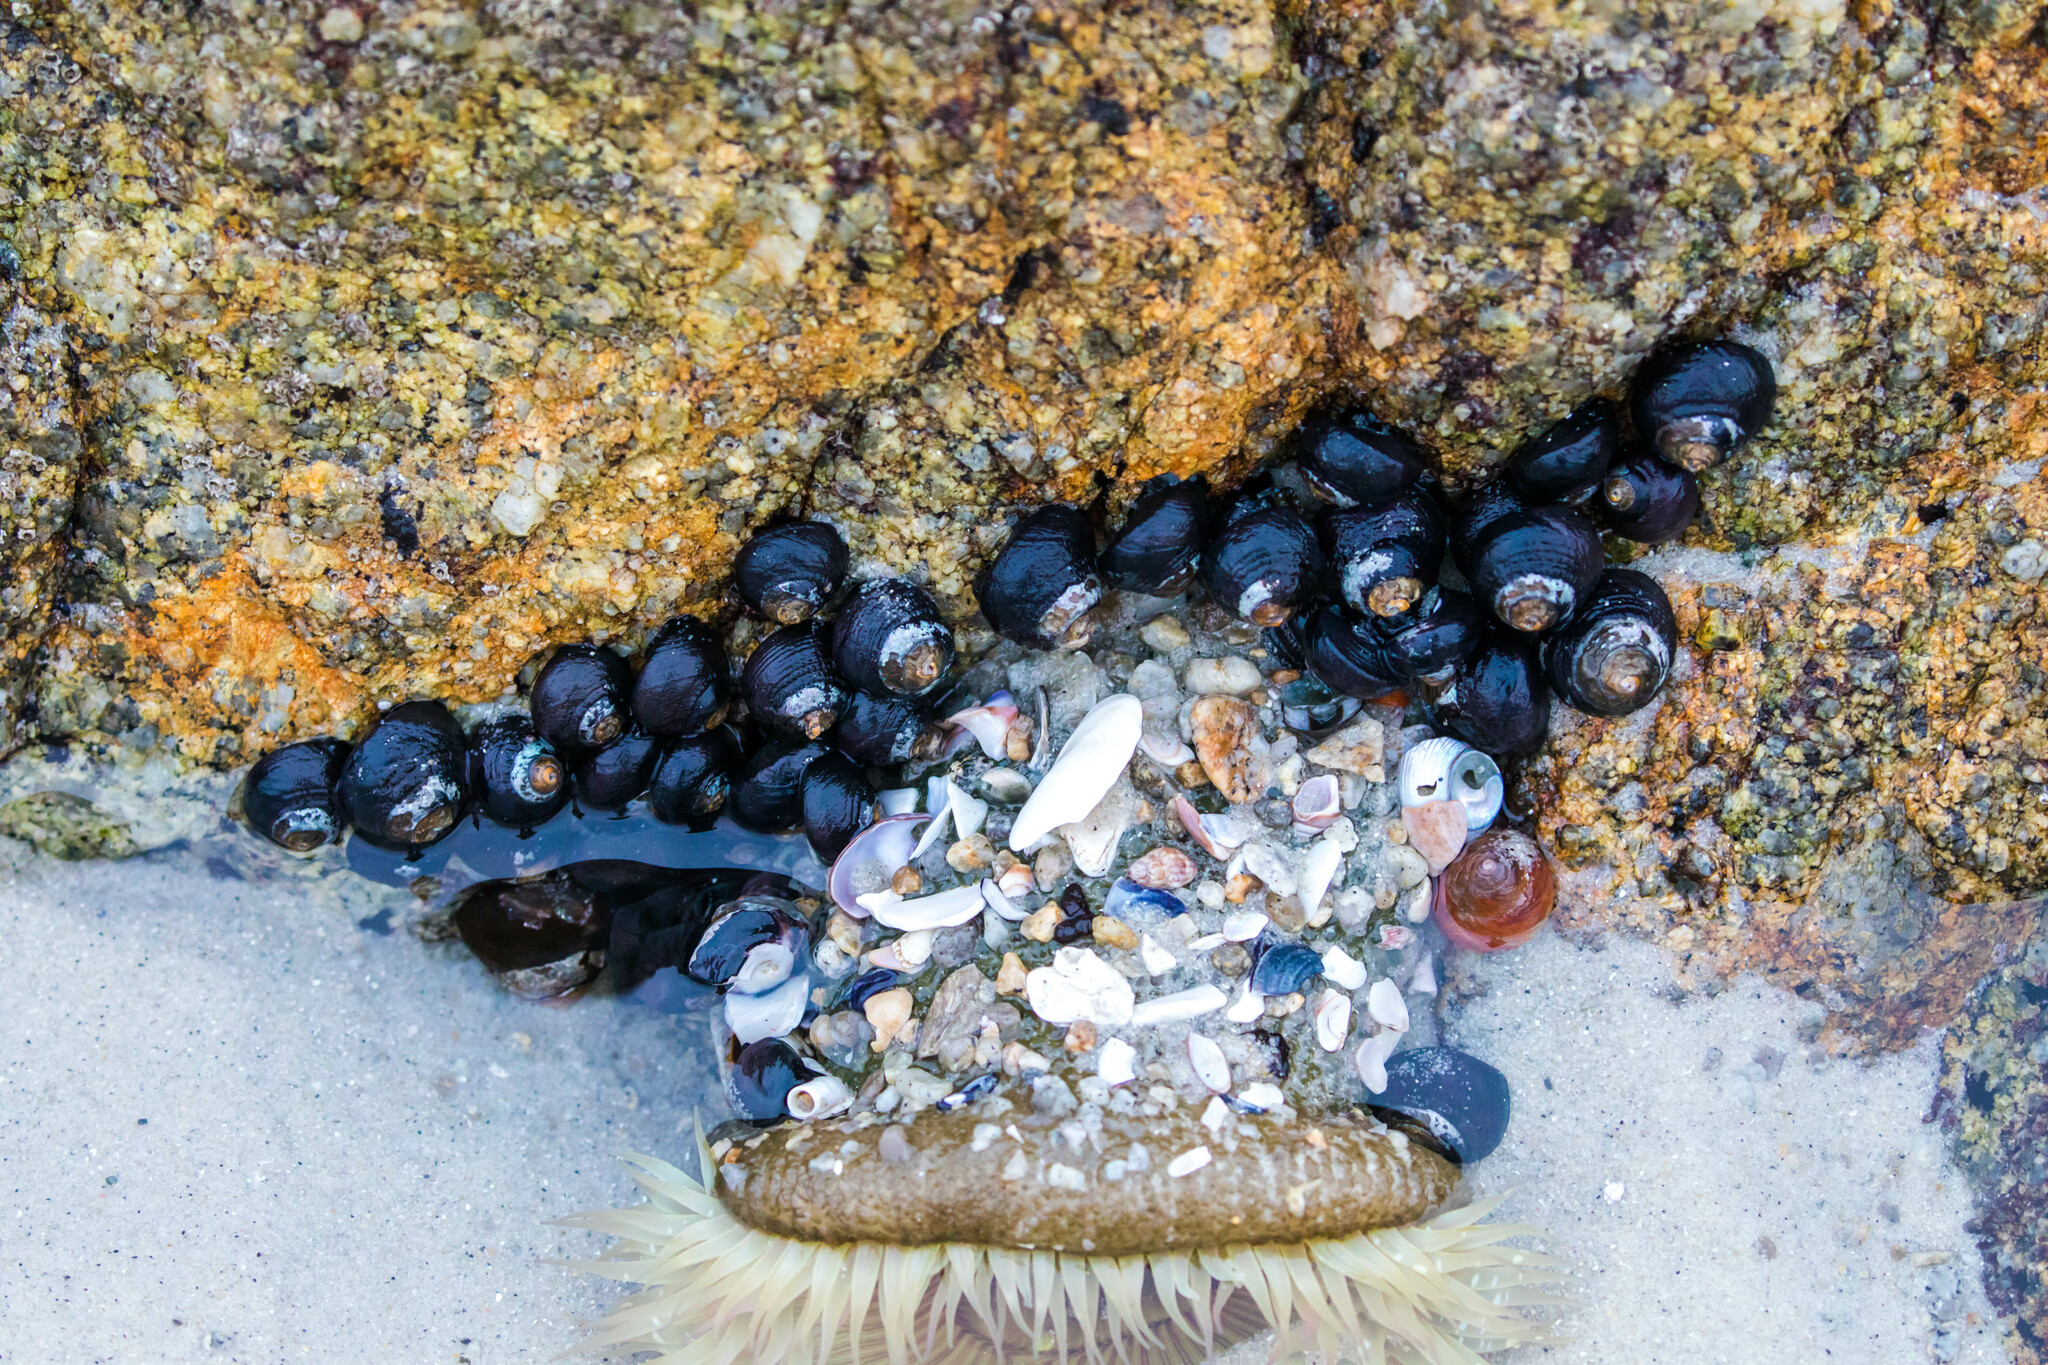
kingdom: Animalia
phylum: Mollusca
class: Gastropoda
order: Trochida
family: Tegulidae
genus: Tegula
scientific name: Tegula funebralis
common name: Black tegula
